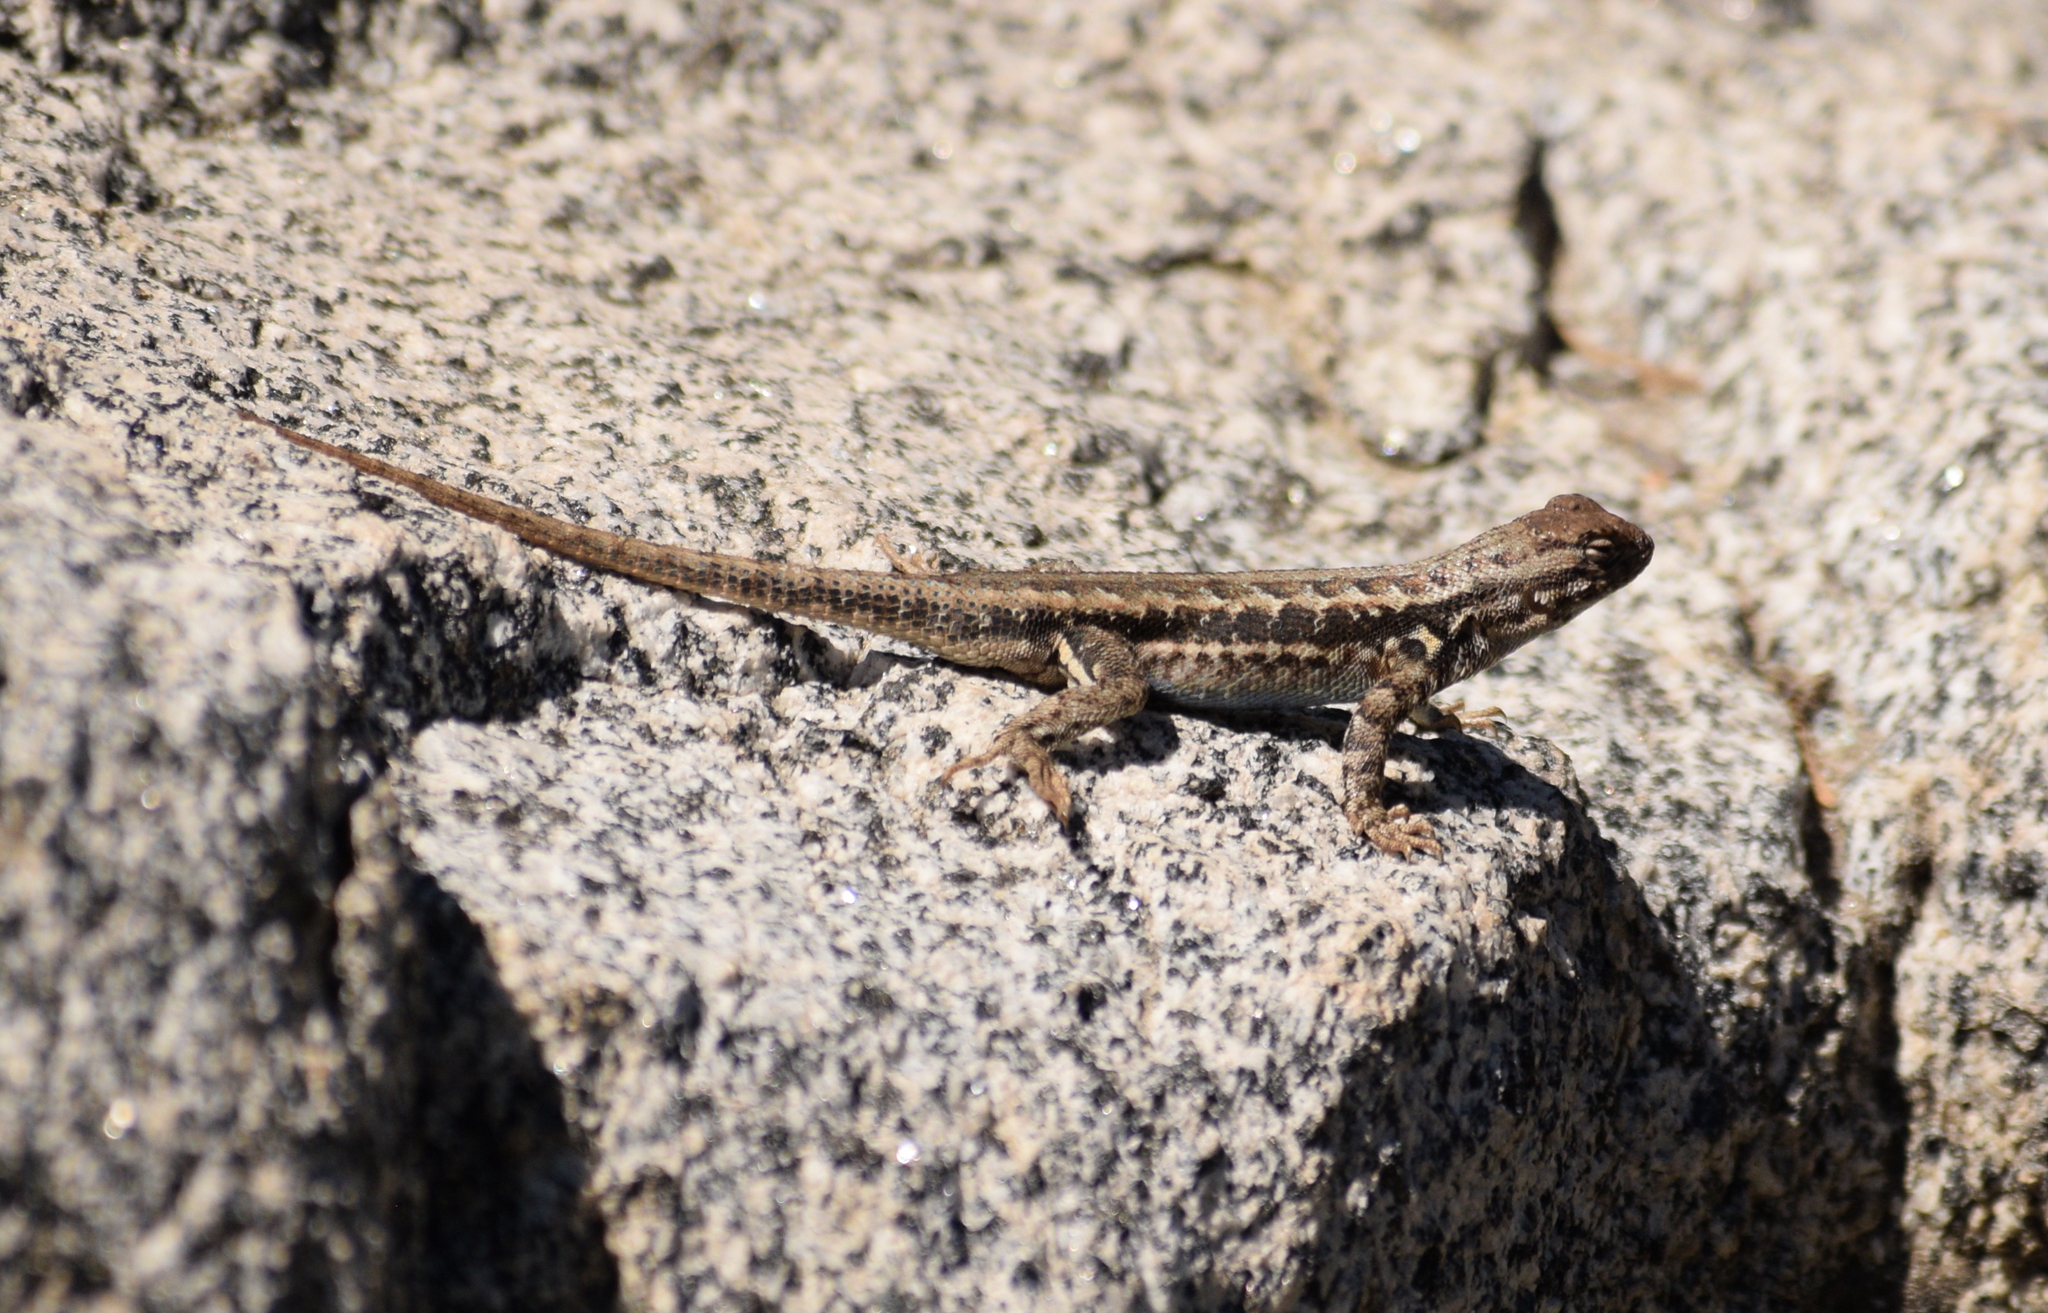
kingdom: Animalia
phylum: Chordata
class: Squamata
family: Phrynosomatidae
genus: Sceloporus
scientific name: Sceloporus graciosus
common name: Sagebrush lizard
